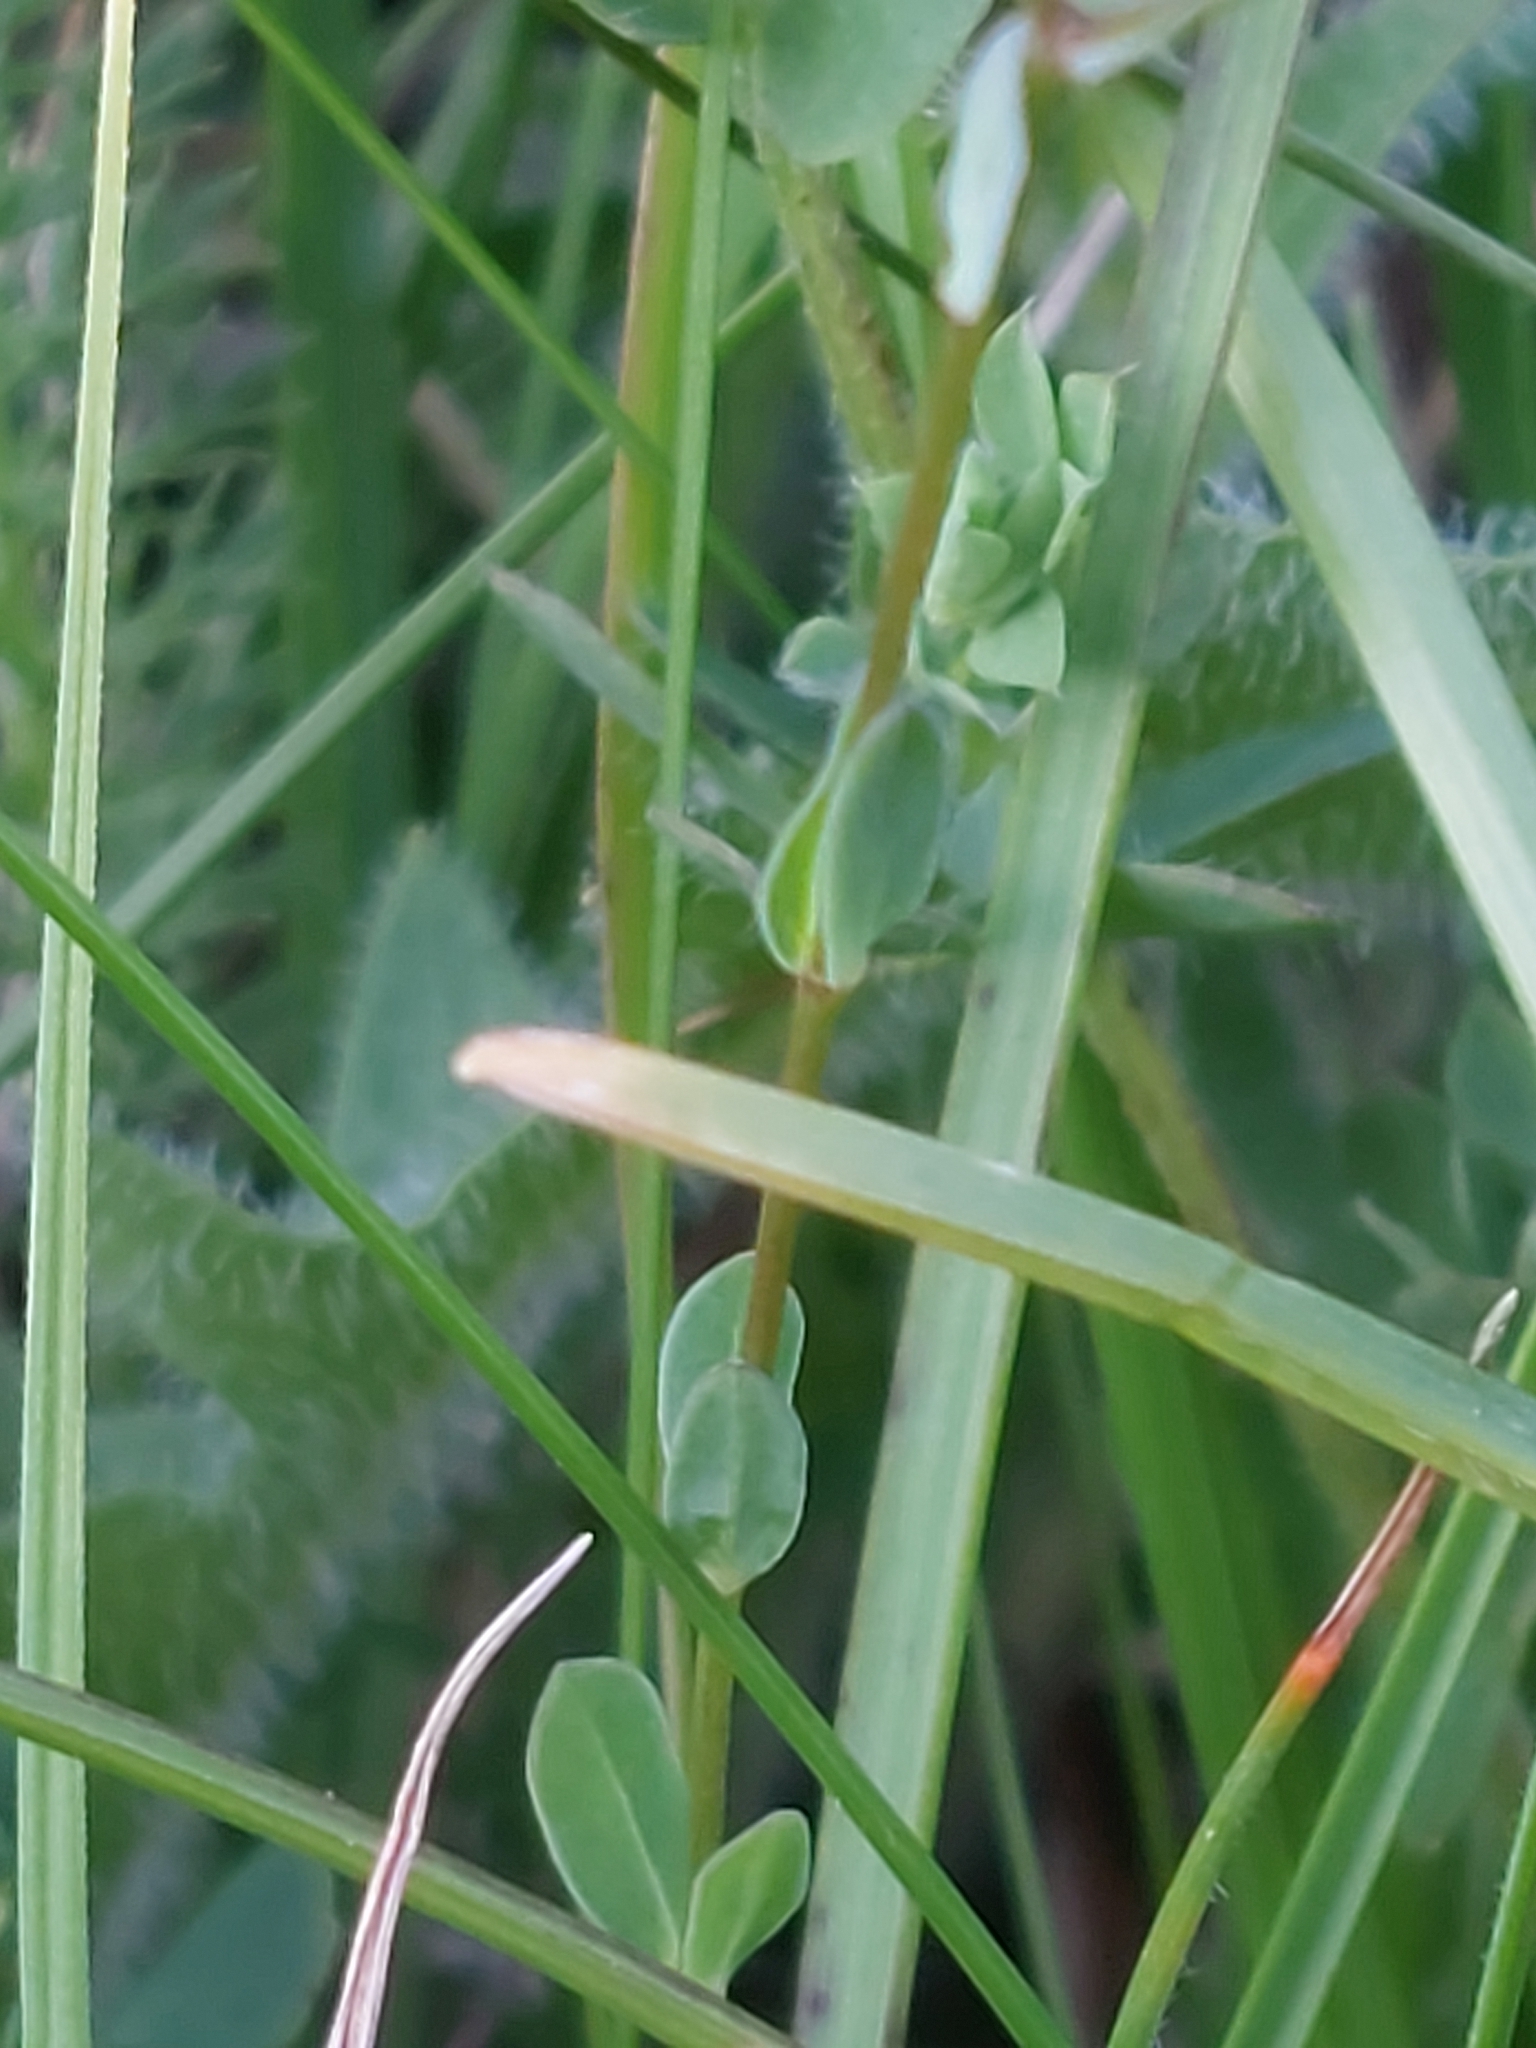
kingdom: Plantae
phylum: Tracheophyta
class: Magnoliopsida
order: Malpighiales
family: Linaceae
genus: Linum
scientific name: Linum catharticum
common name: Fairy flax
